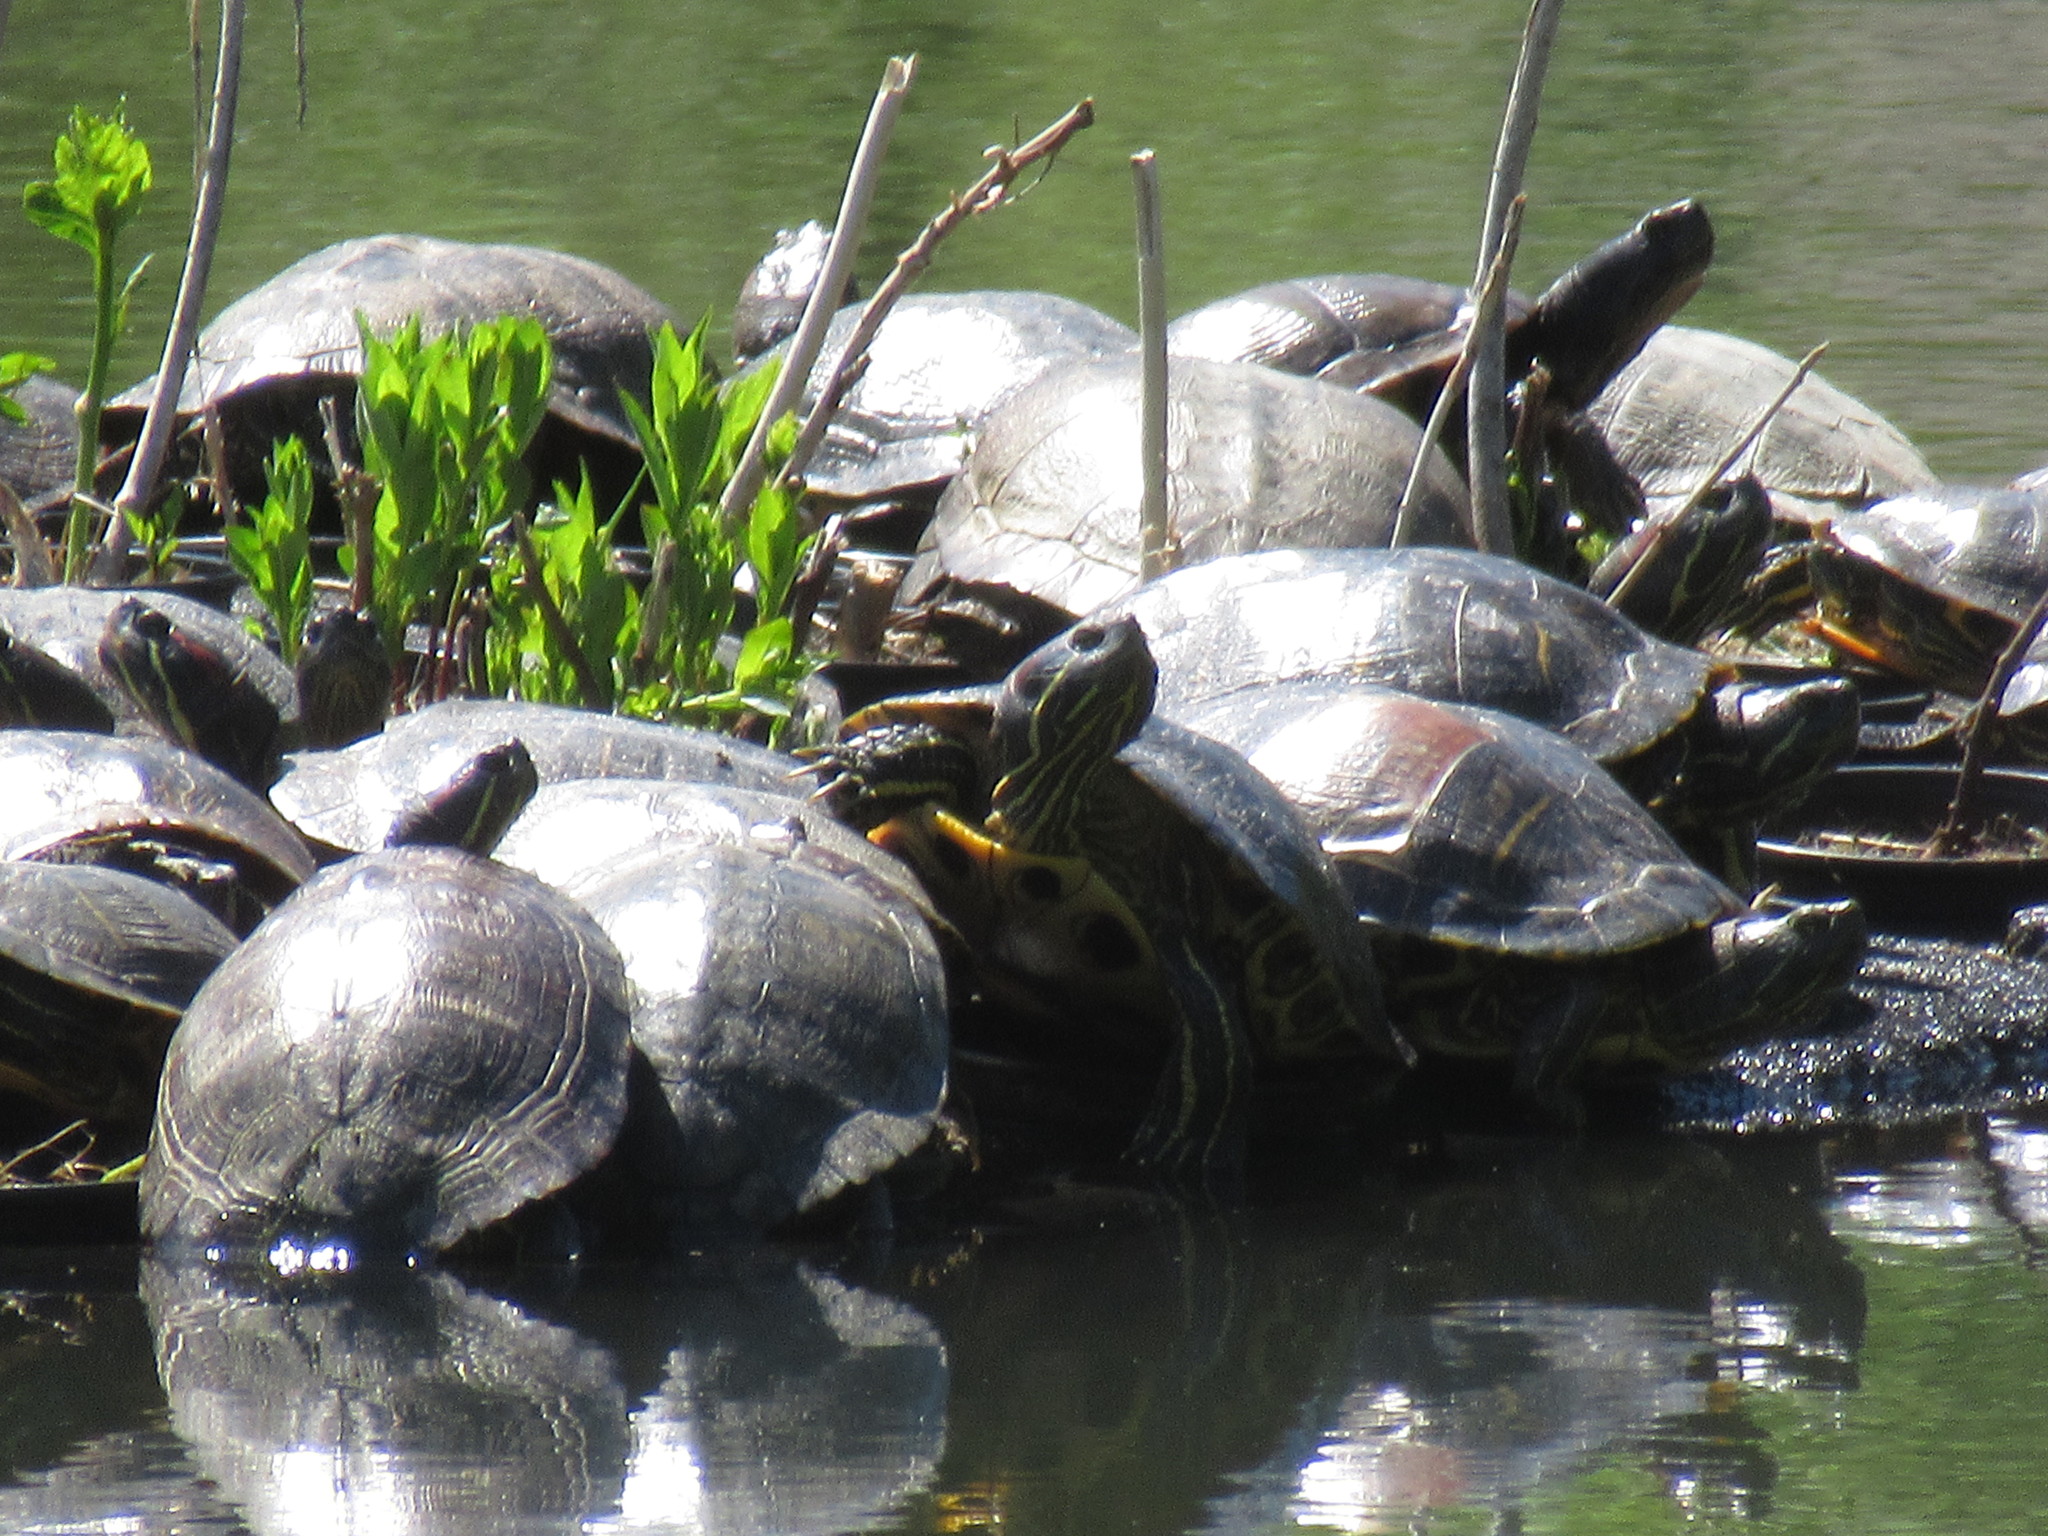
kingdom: Animalia
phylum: Chordata
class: Testudines
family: Emydidae
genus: Trachemys
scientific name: Trachemys scripta
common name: Slider
